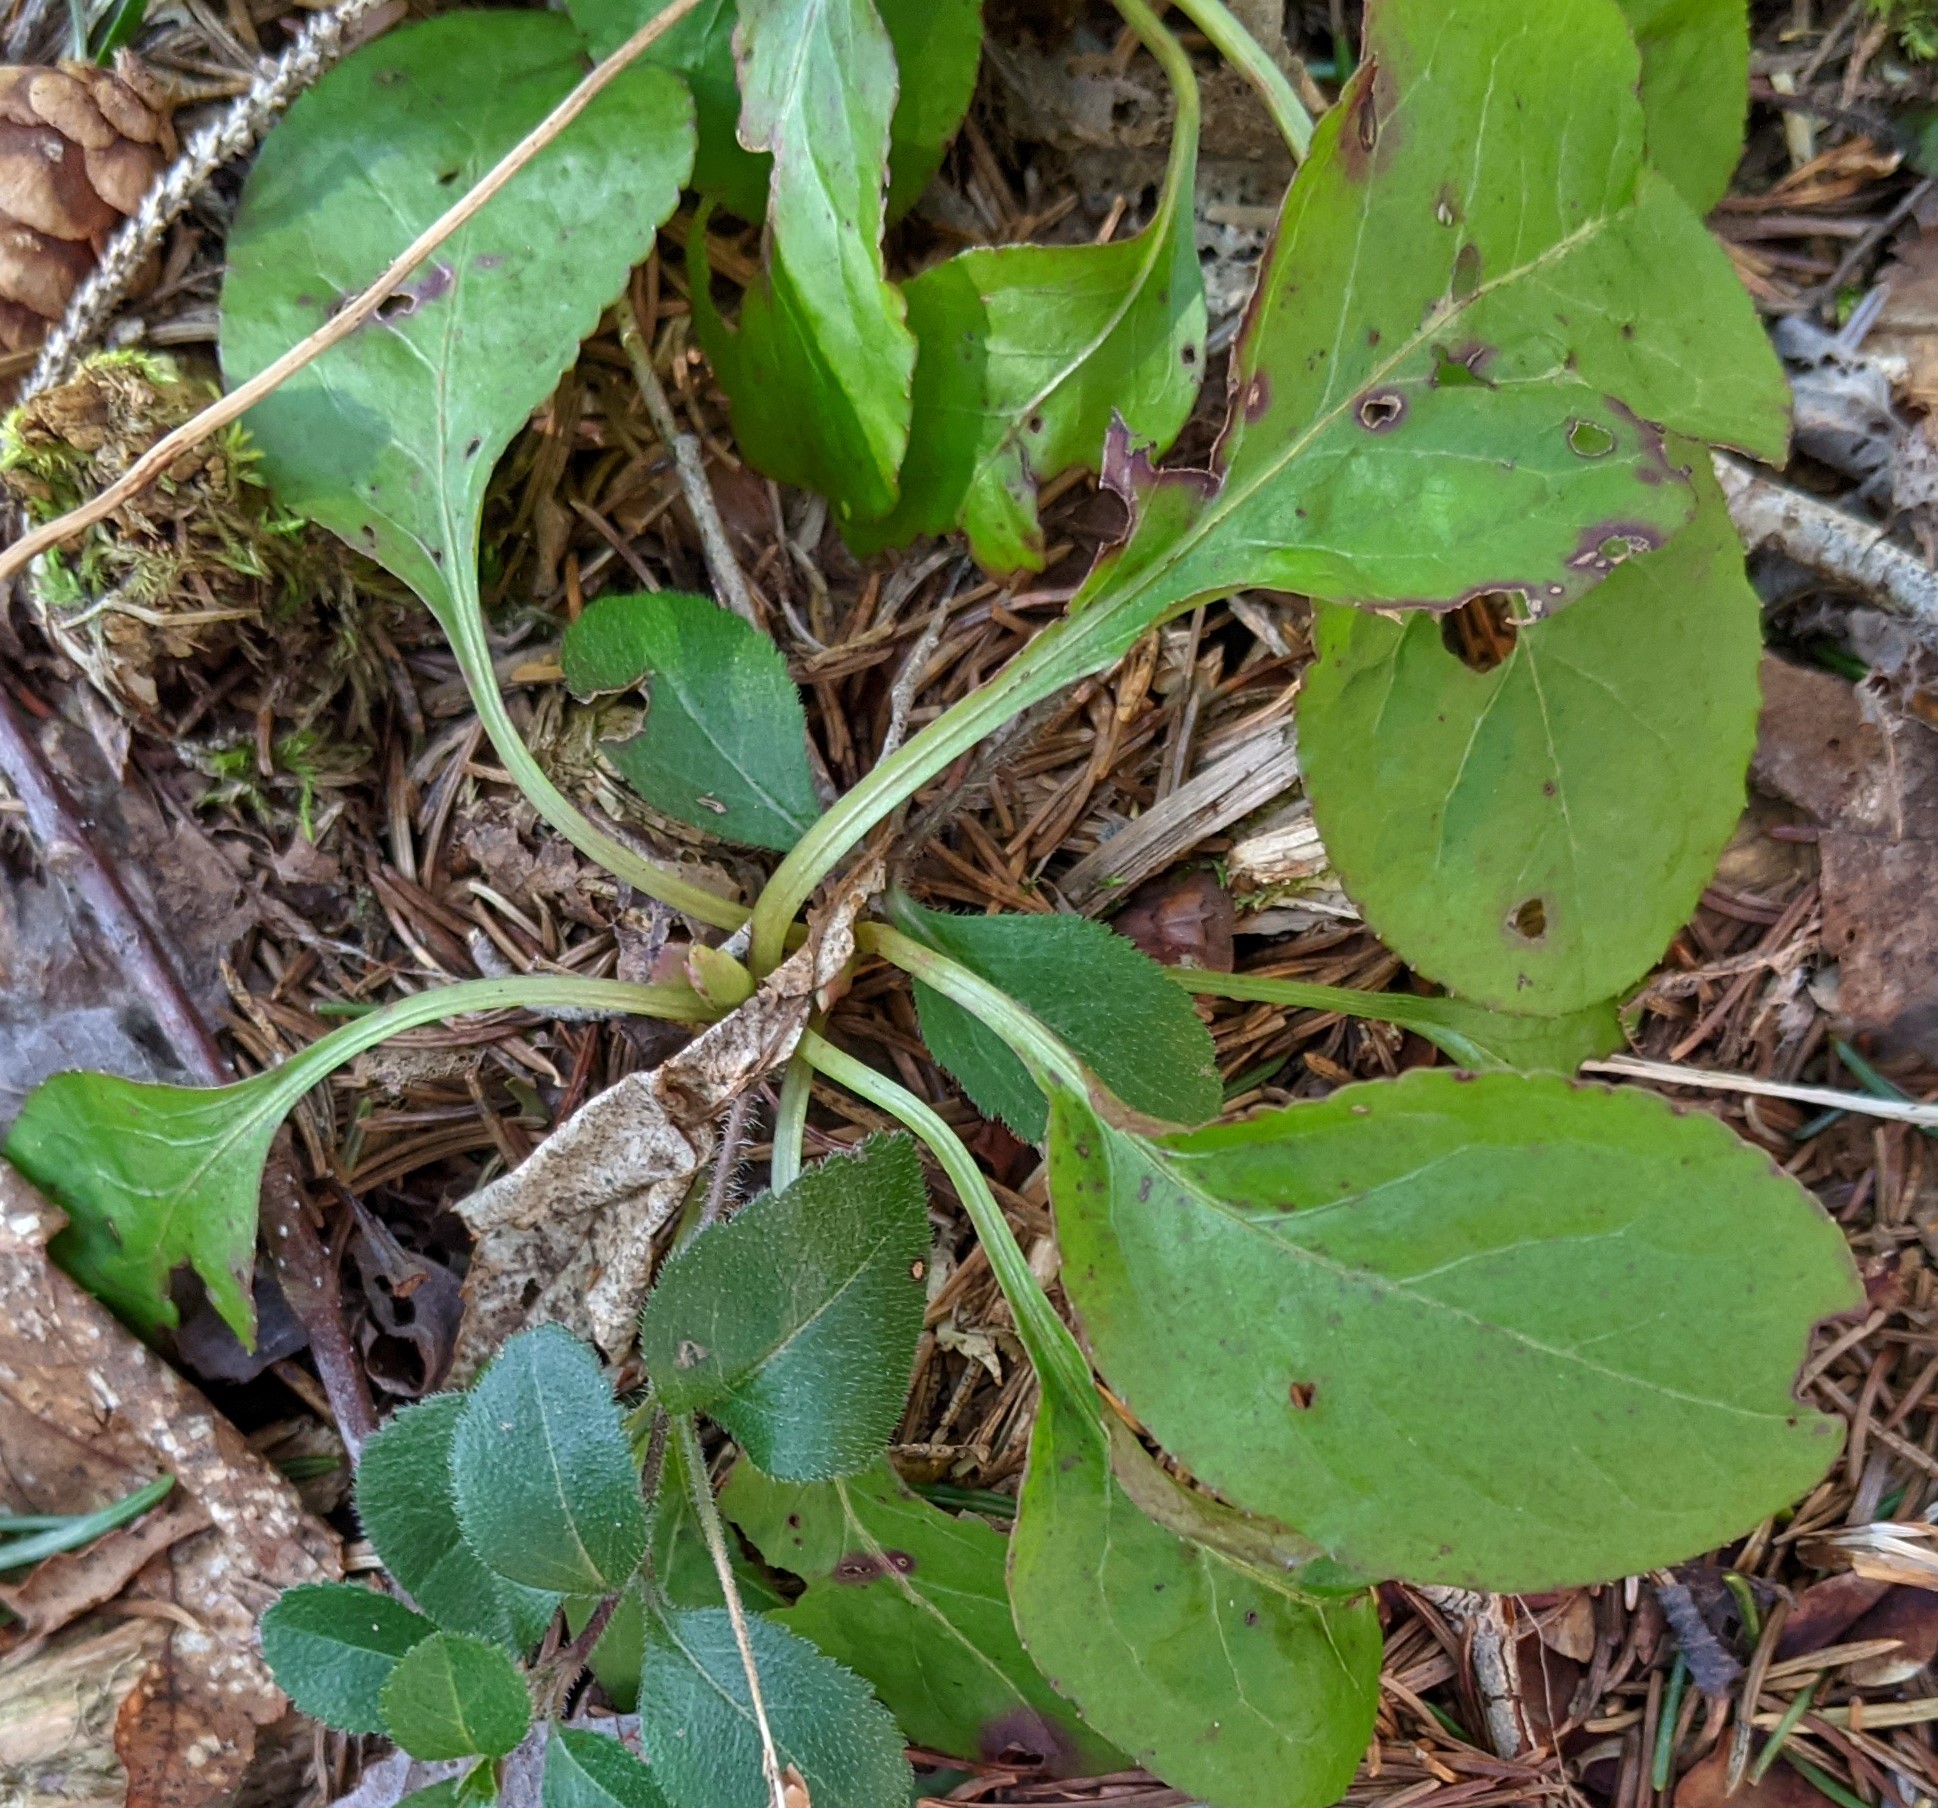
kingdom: Plantae
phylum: Tracheophyta
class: Magnoliopsida
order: Ericales
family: Ericaceae
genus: Pyrola
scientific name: Pyrola elliptica
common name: Shinleaf
